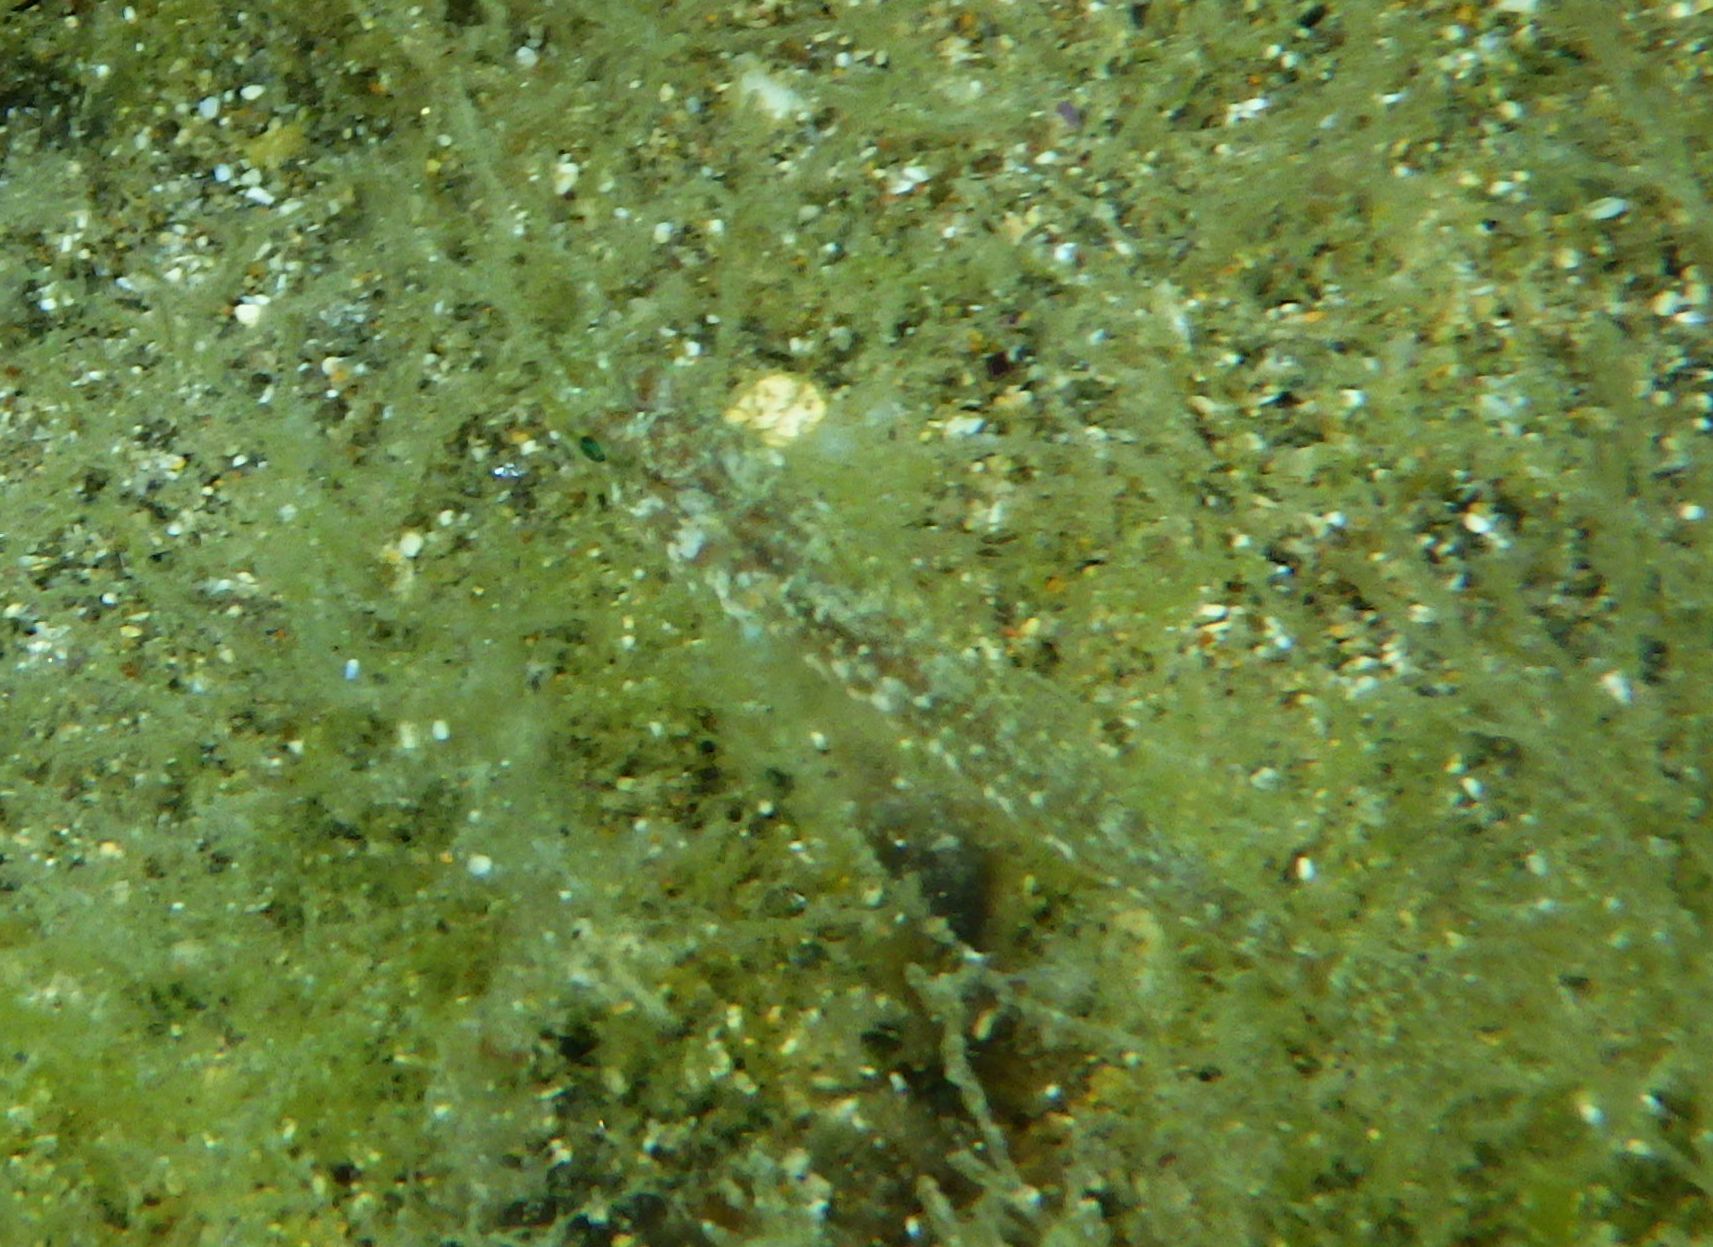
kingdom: Animalia
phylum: Chordata
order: Perciformes
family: Gobiidae
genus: Gobius
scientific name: Gobius cruentatus
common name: Red-mouthed goby
